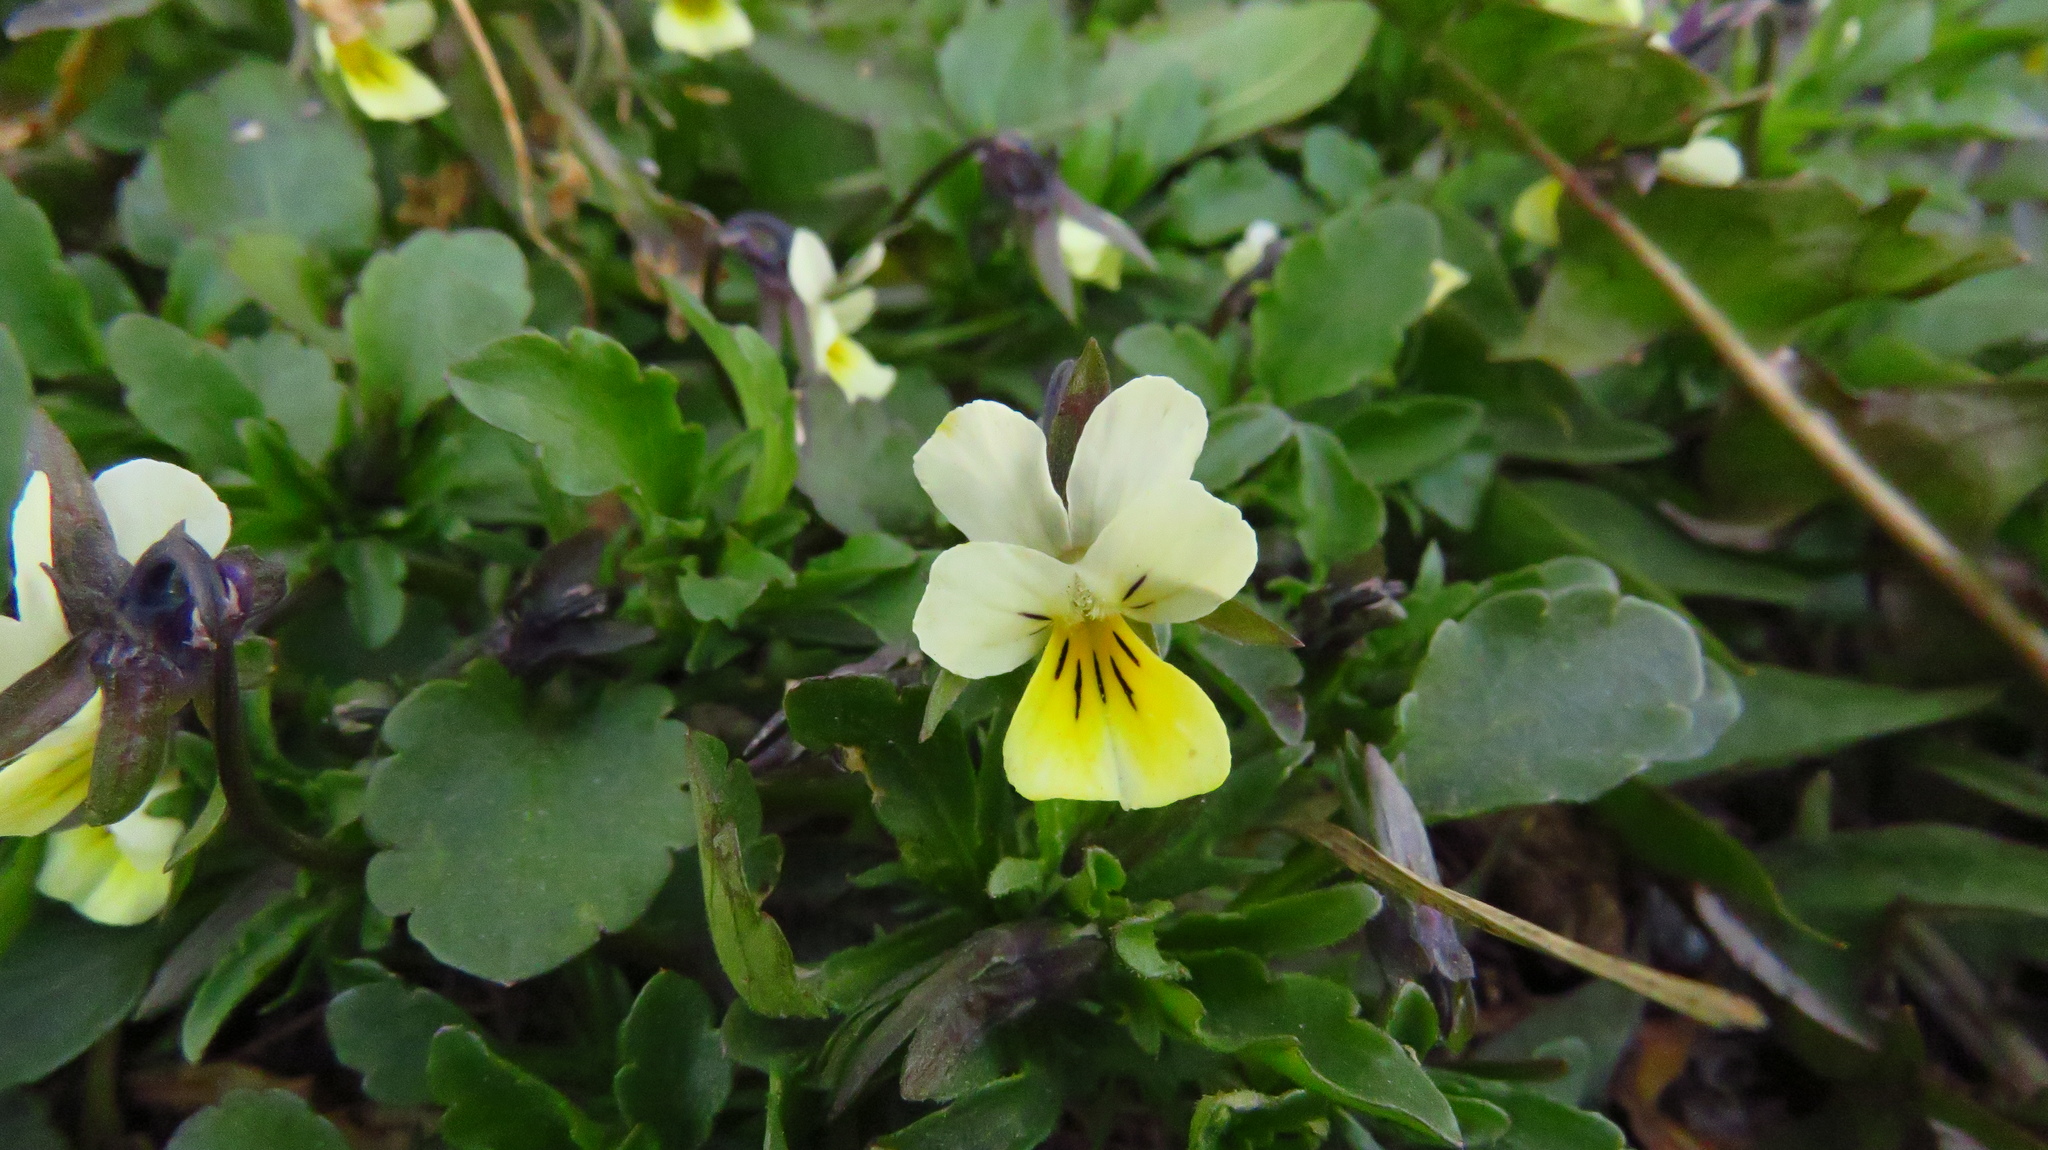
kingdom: Plantae
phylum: Tracheophyta
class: Magnoliopsida
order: Malpighiales
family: Violaceae
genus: Viola
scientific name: Viola arvensis
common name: Field pansy
